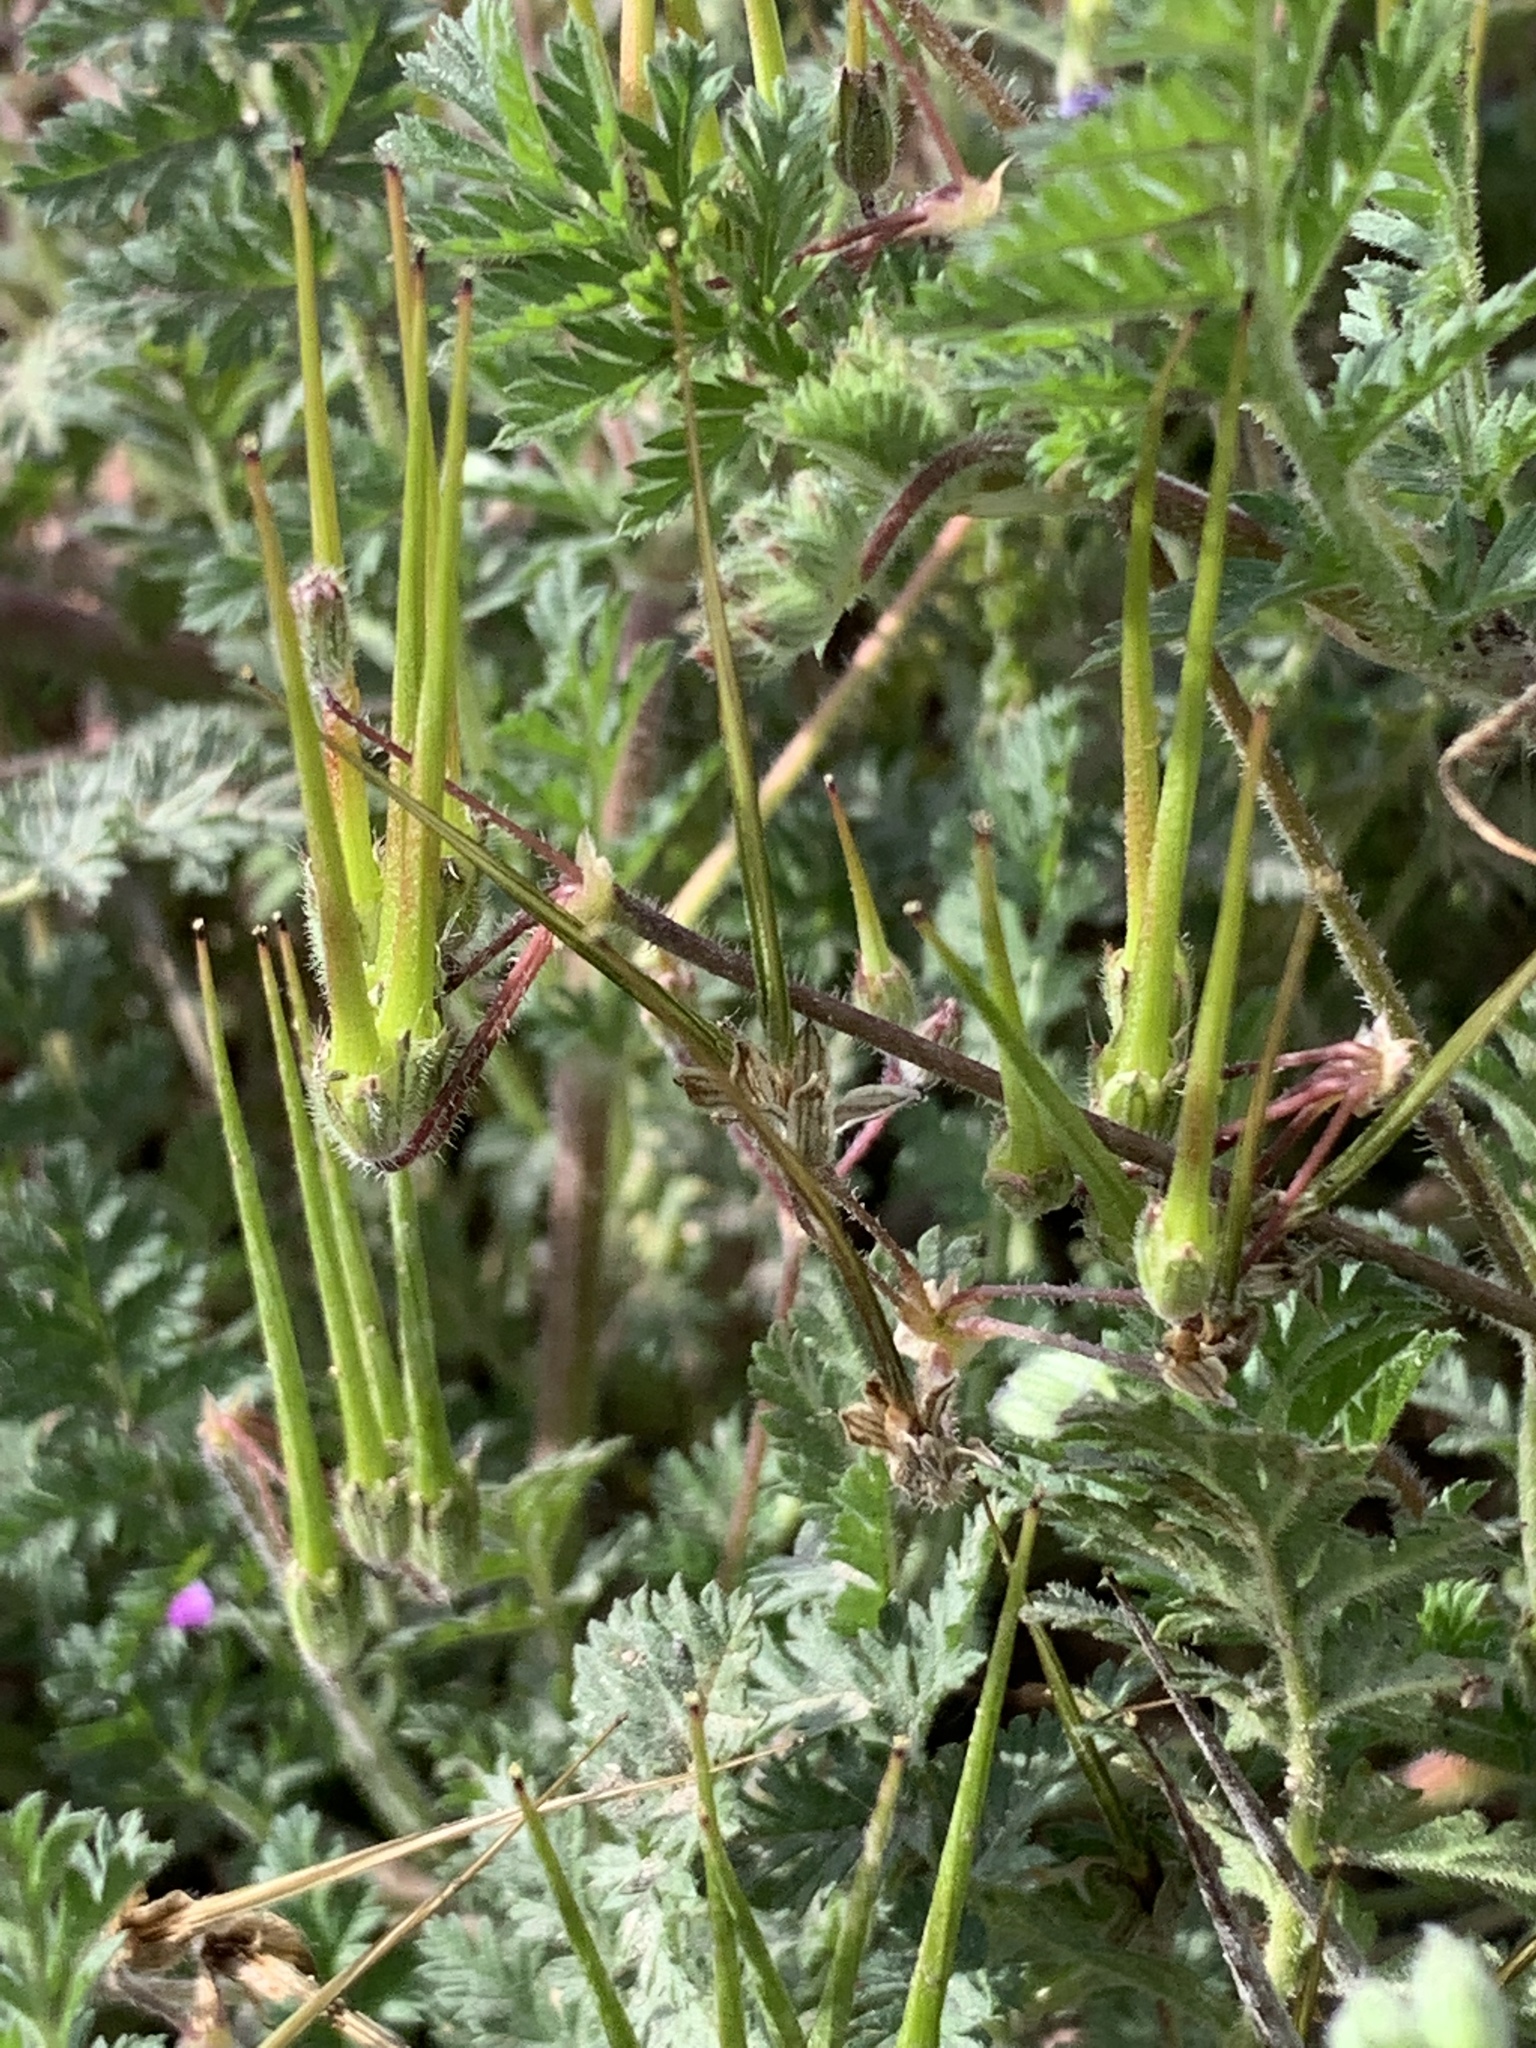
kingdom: Plantae
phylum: Tracheophyta
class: Magnoliopsida
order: Geraniales
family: Geraniaceae
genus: Erodium
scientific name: Erodium cicutarium
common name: Common stork's-bill
